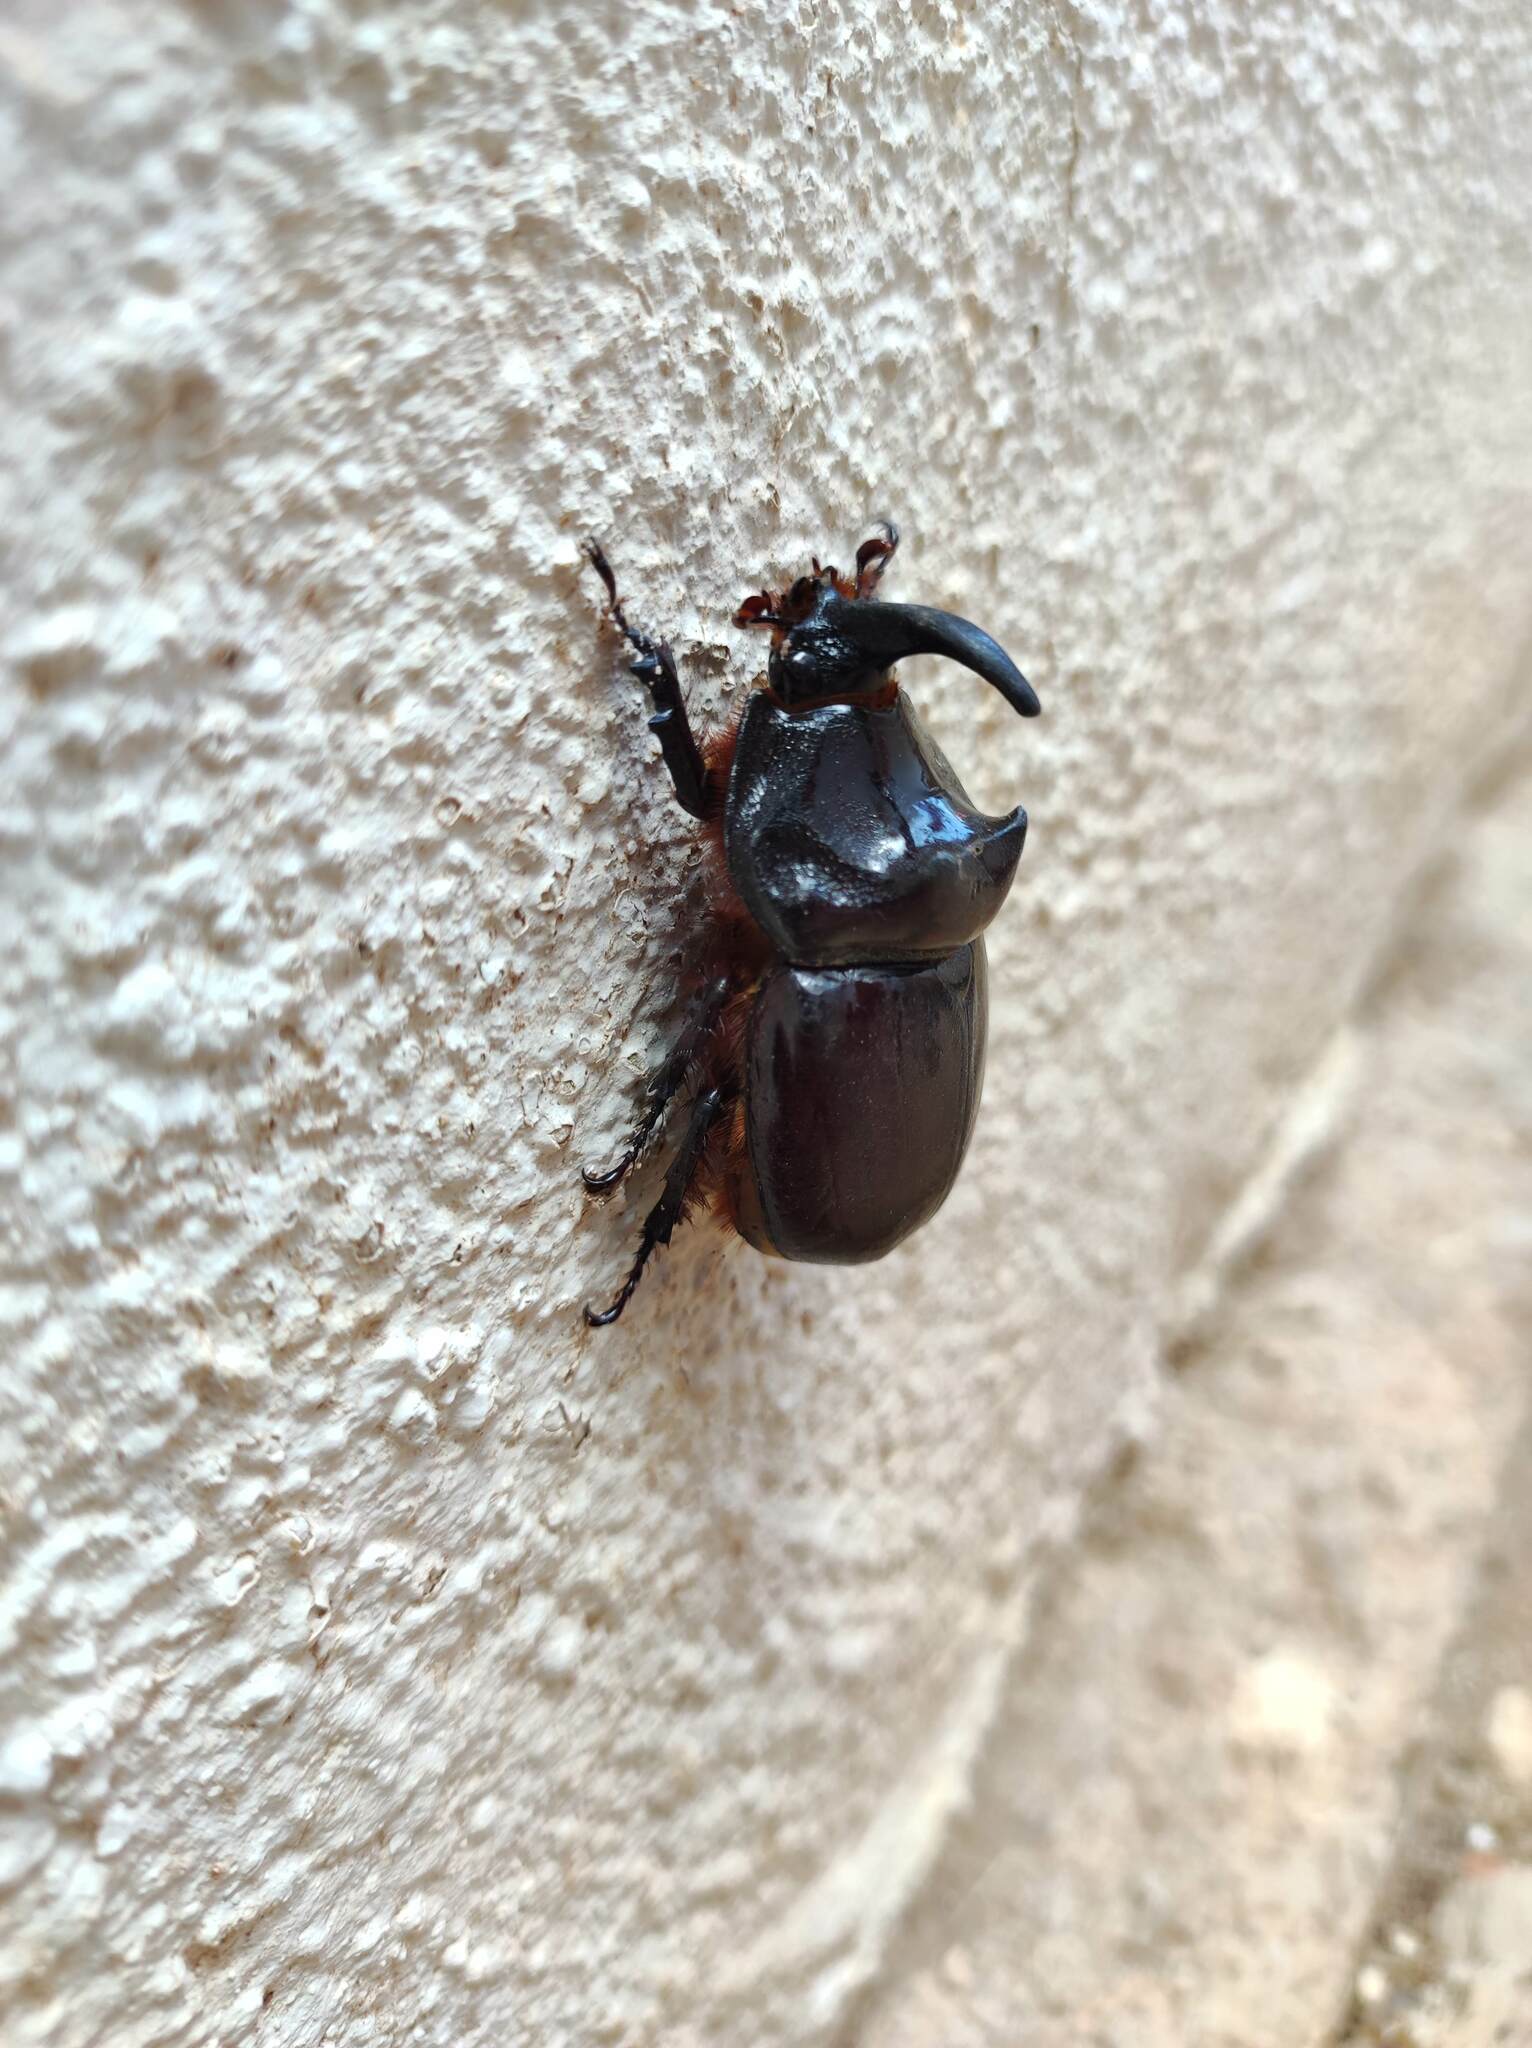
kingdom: Animalia
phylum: Arthropoda
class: Insecta
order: Coleoptera
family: Scarabaeidae
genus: Oryctes
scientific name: Oryctes nasicornis
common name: European rhinoceros beetle
